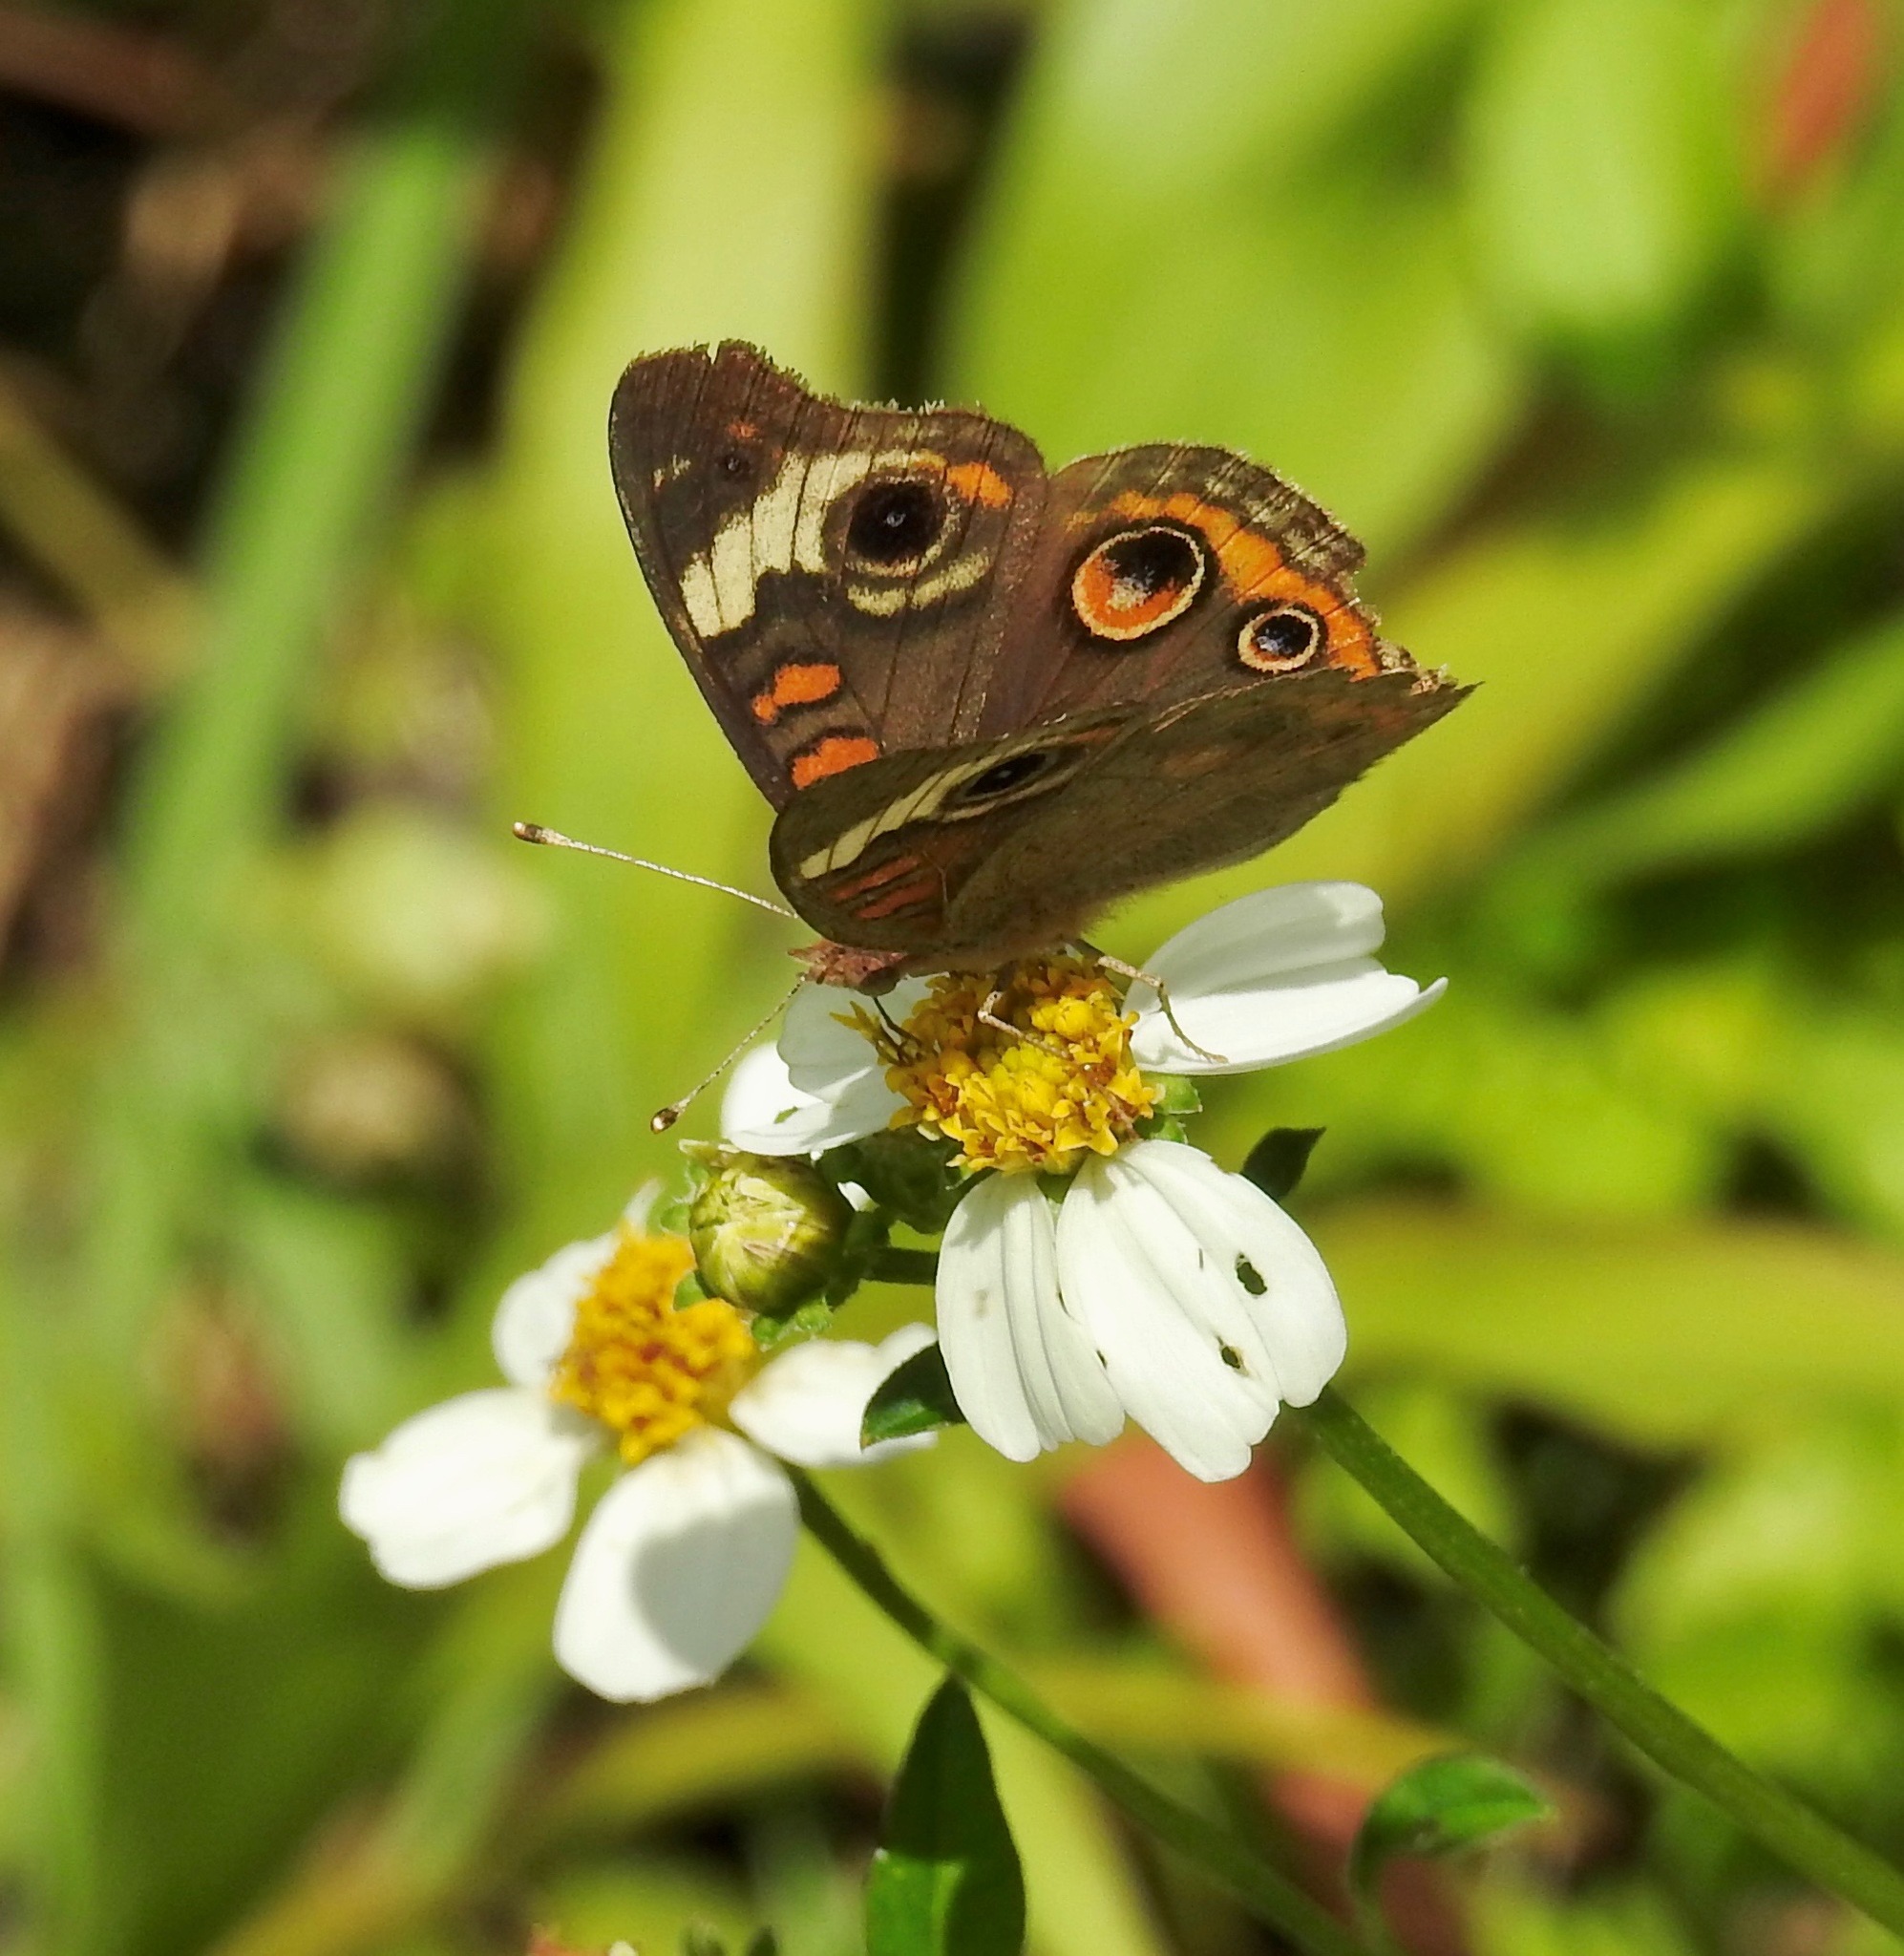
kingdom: Animalia
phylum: Arthropoda
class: Insecta
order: Lepidoptera
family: Nymphalidae
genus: Junonia
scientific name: Junonia coenia
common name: Common buckeye
